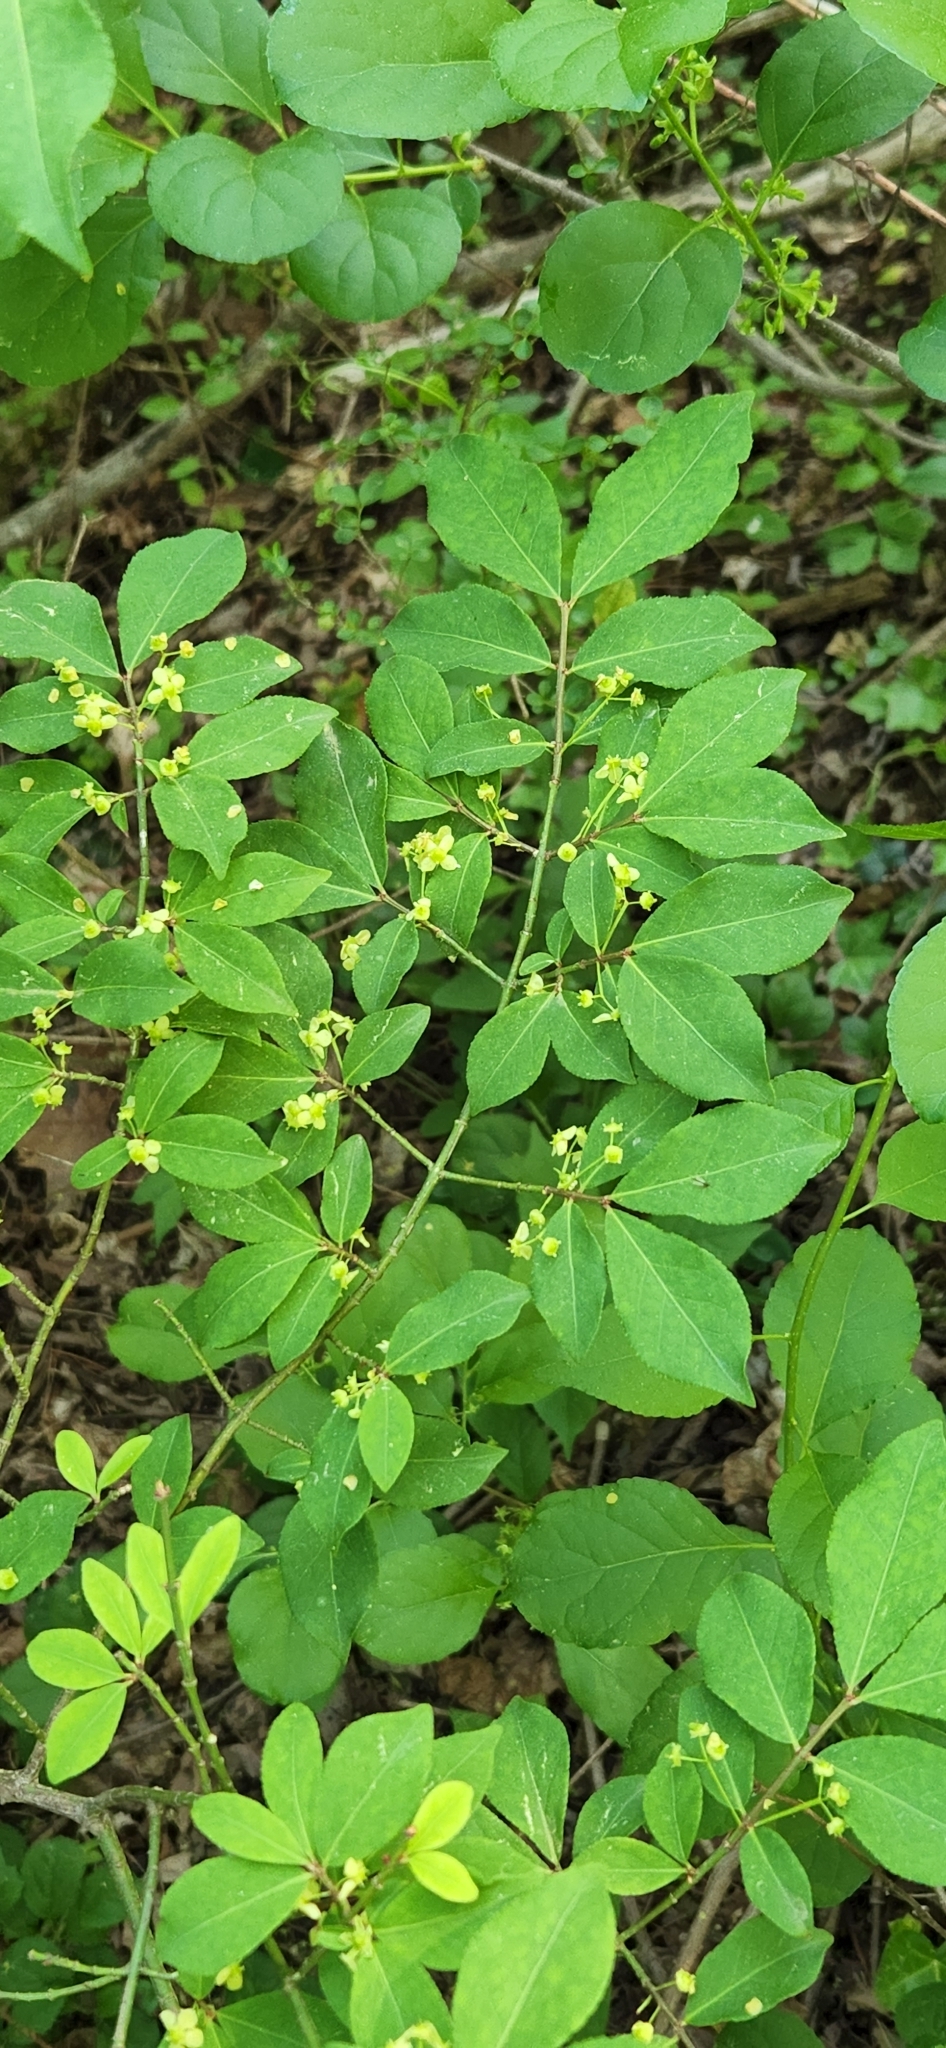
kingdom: Plantae
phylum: Tracheophyta
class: Magnoliopsida
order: Celastrales
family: Celastraceae
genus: Euonymus
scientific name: Euonymus alatus
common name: Winged euonymus
